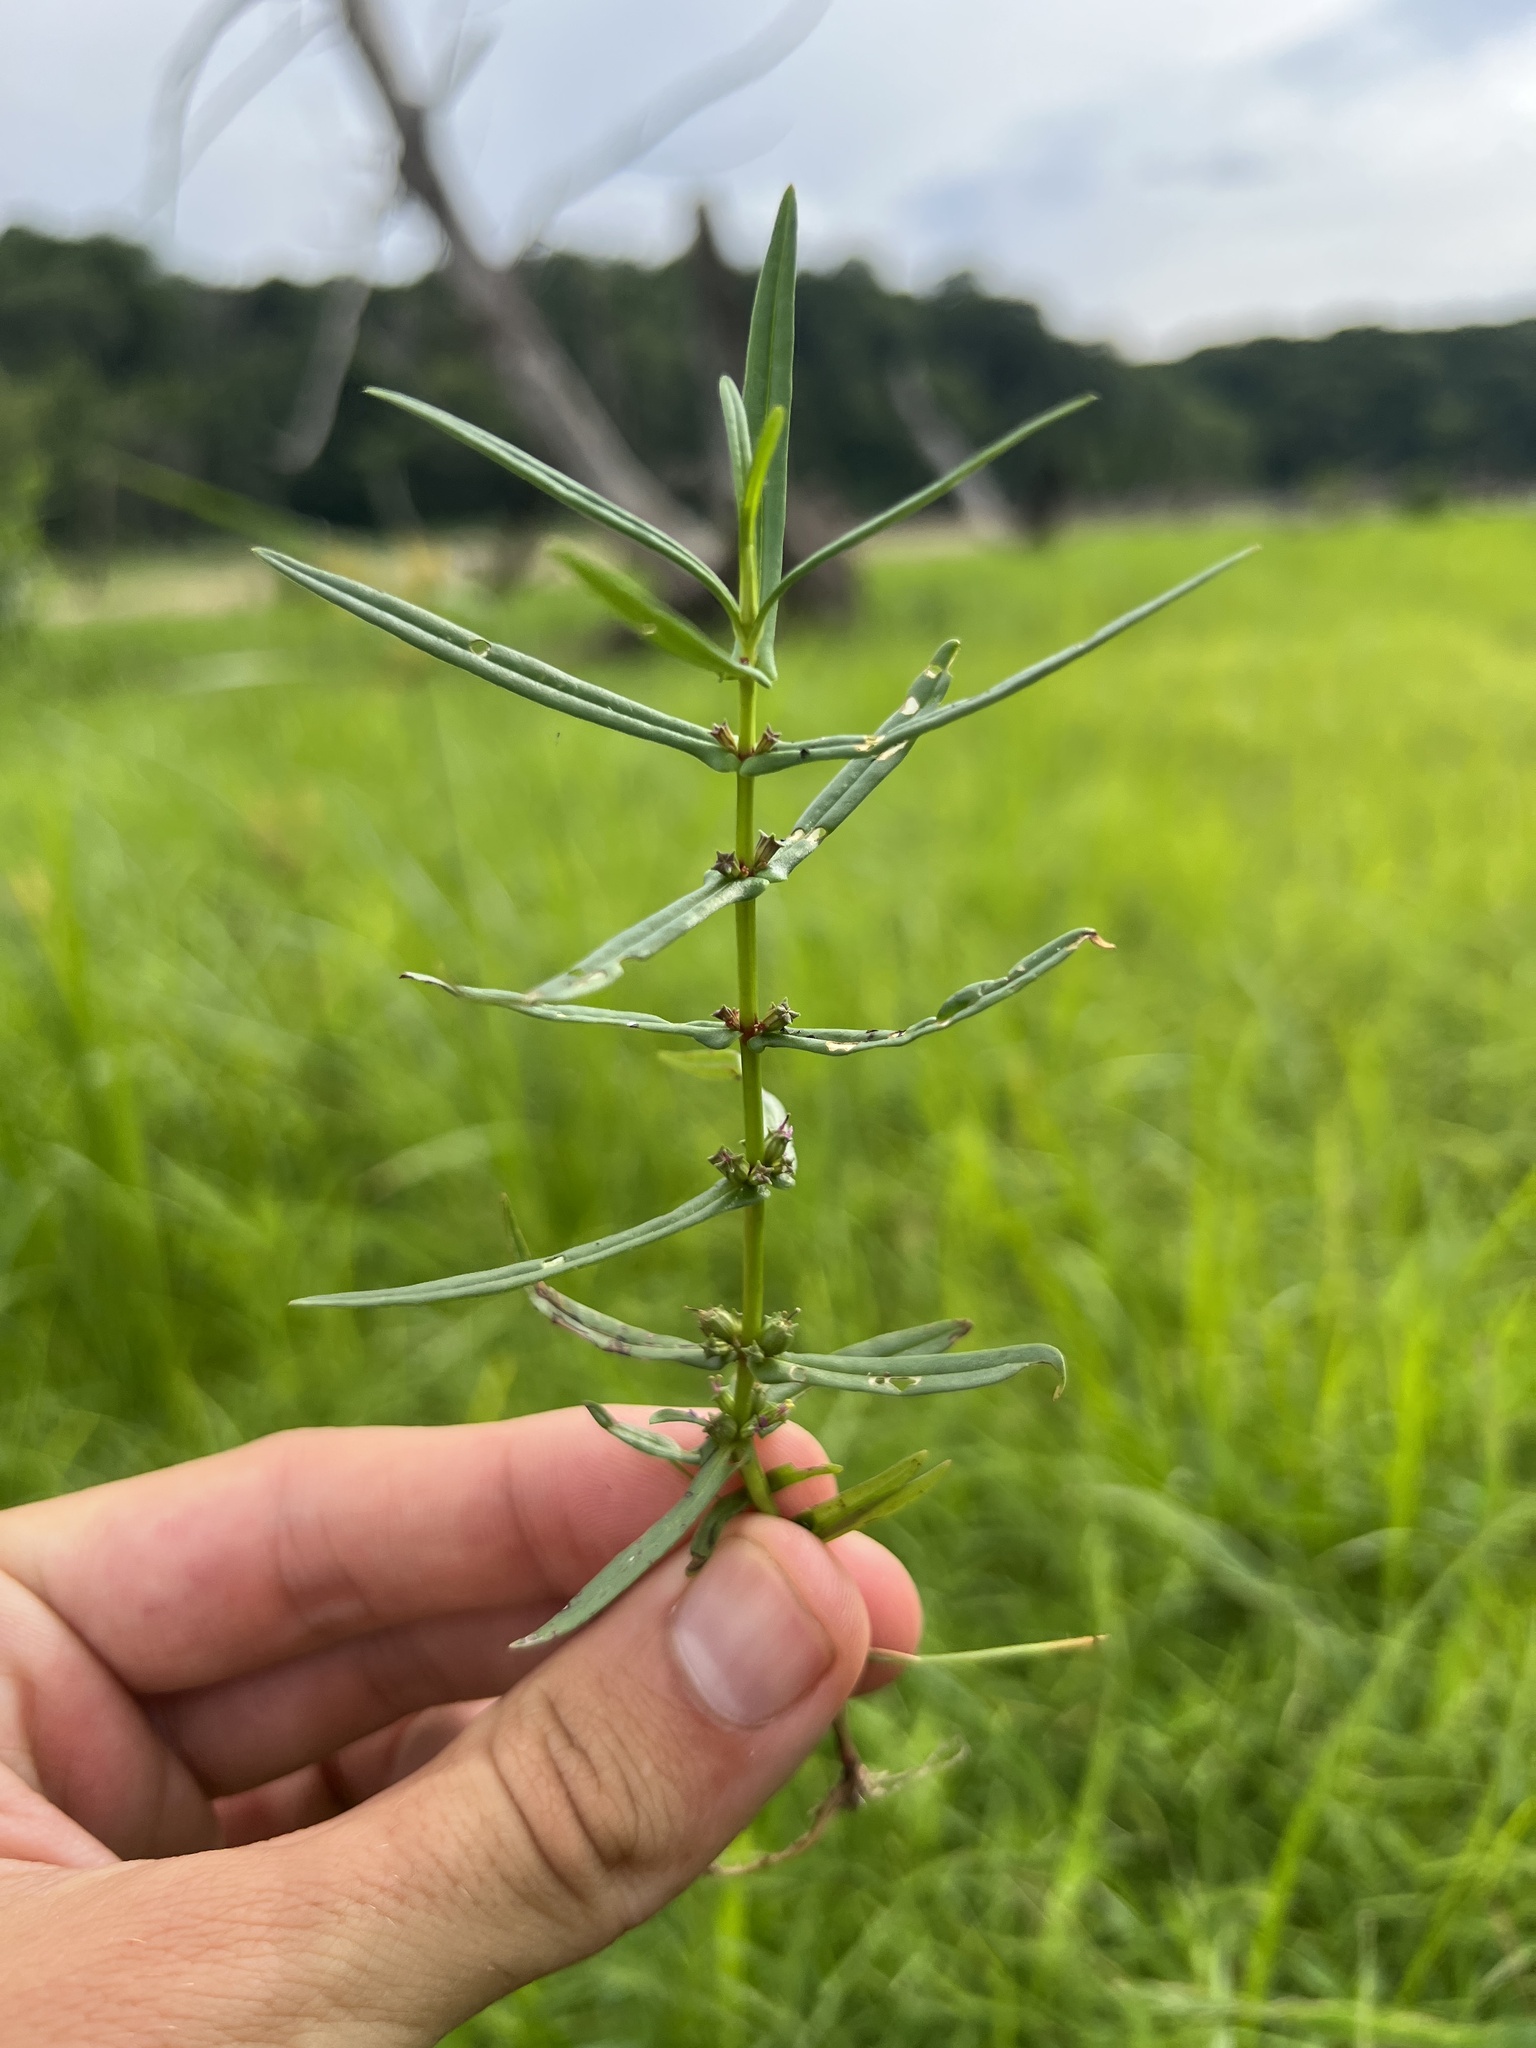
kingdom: Plantae
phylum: Tracheophyta
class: Magnoliopsida
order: Myrtales
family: Lythraceae
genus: Ammannia
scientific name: Ammannia coccinea
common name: Valley redstem
